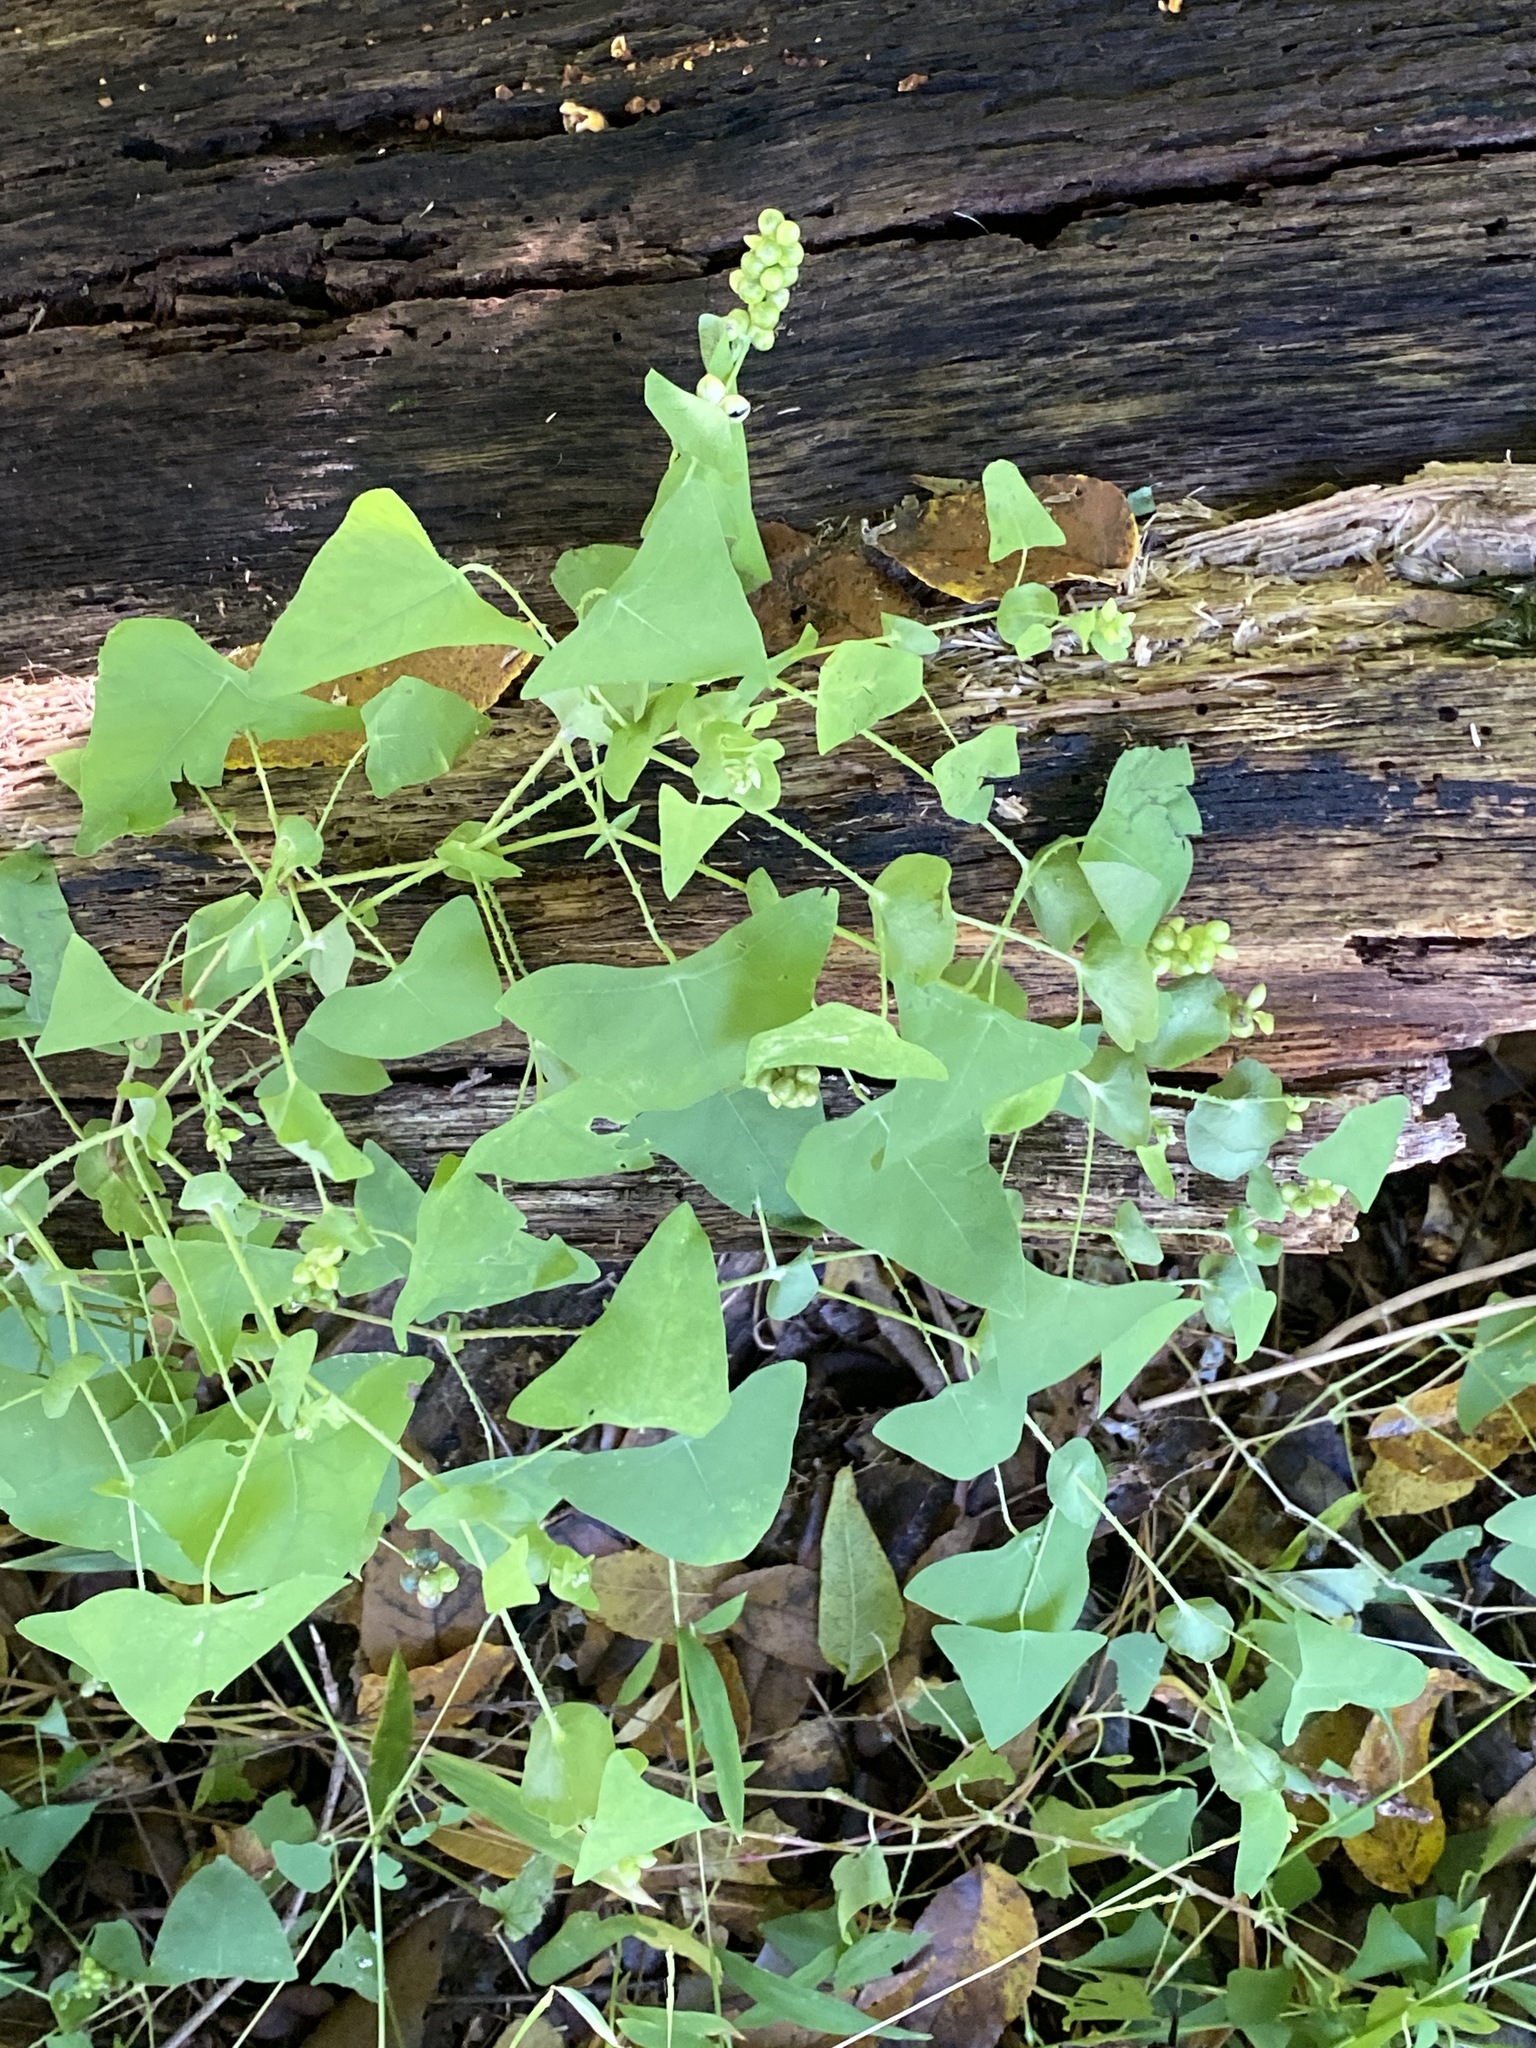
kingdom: Plantae
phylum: Tracheophyta
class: Magnoliopsida
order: Caryophyllales
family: Polygonaceae
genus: Persicaria
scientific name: Persicaria perfoliata
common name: Asiatic tearthumb
